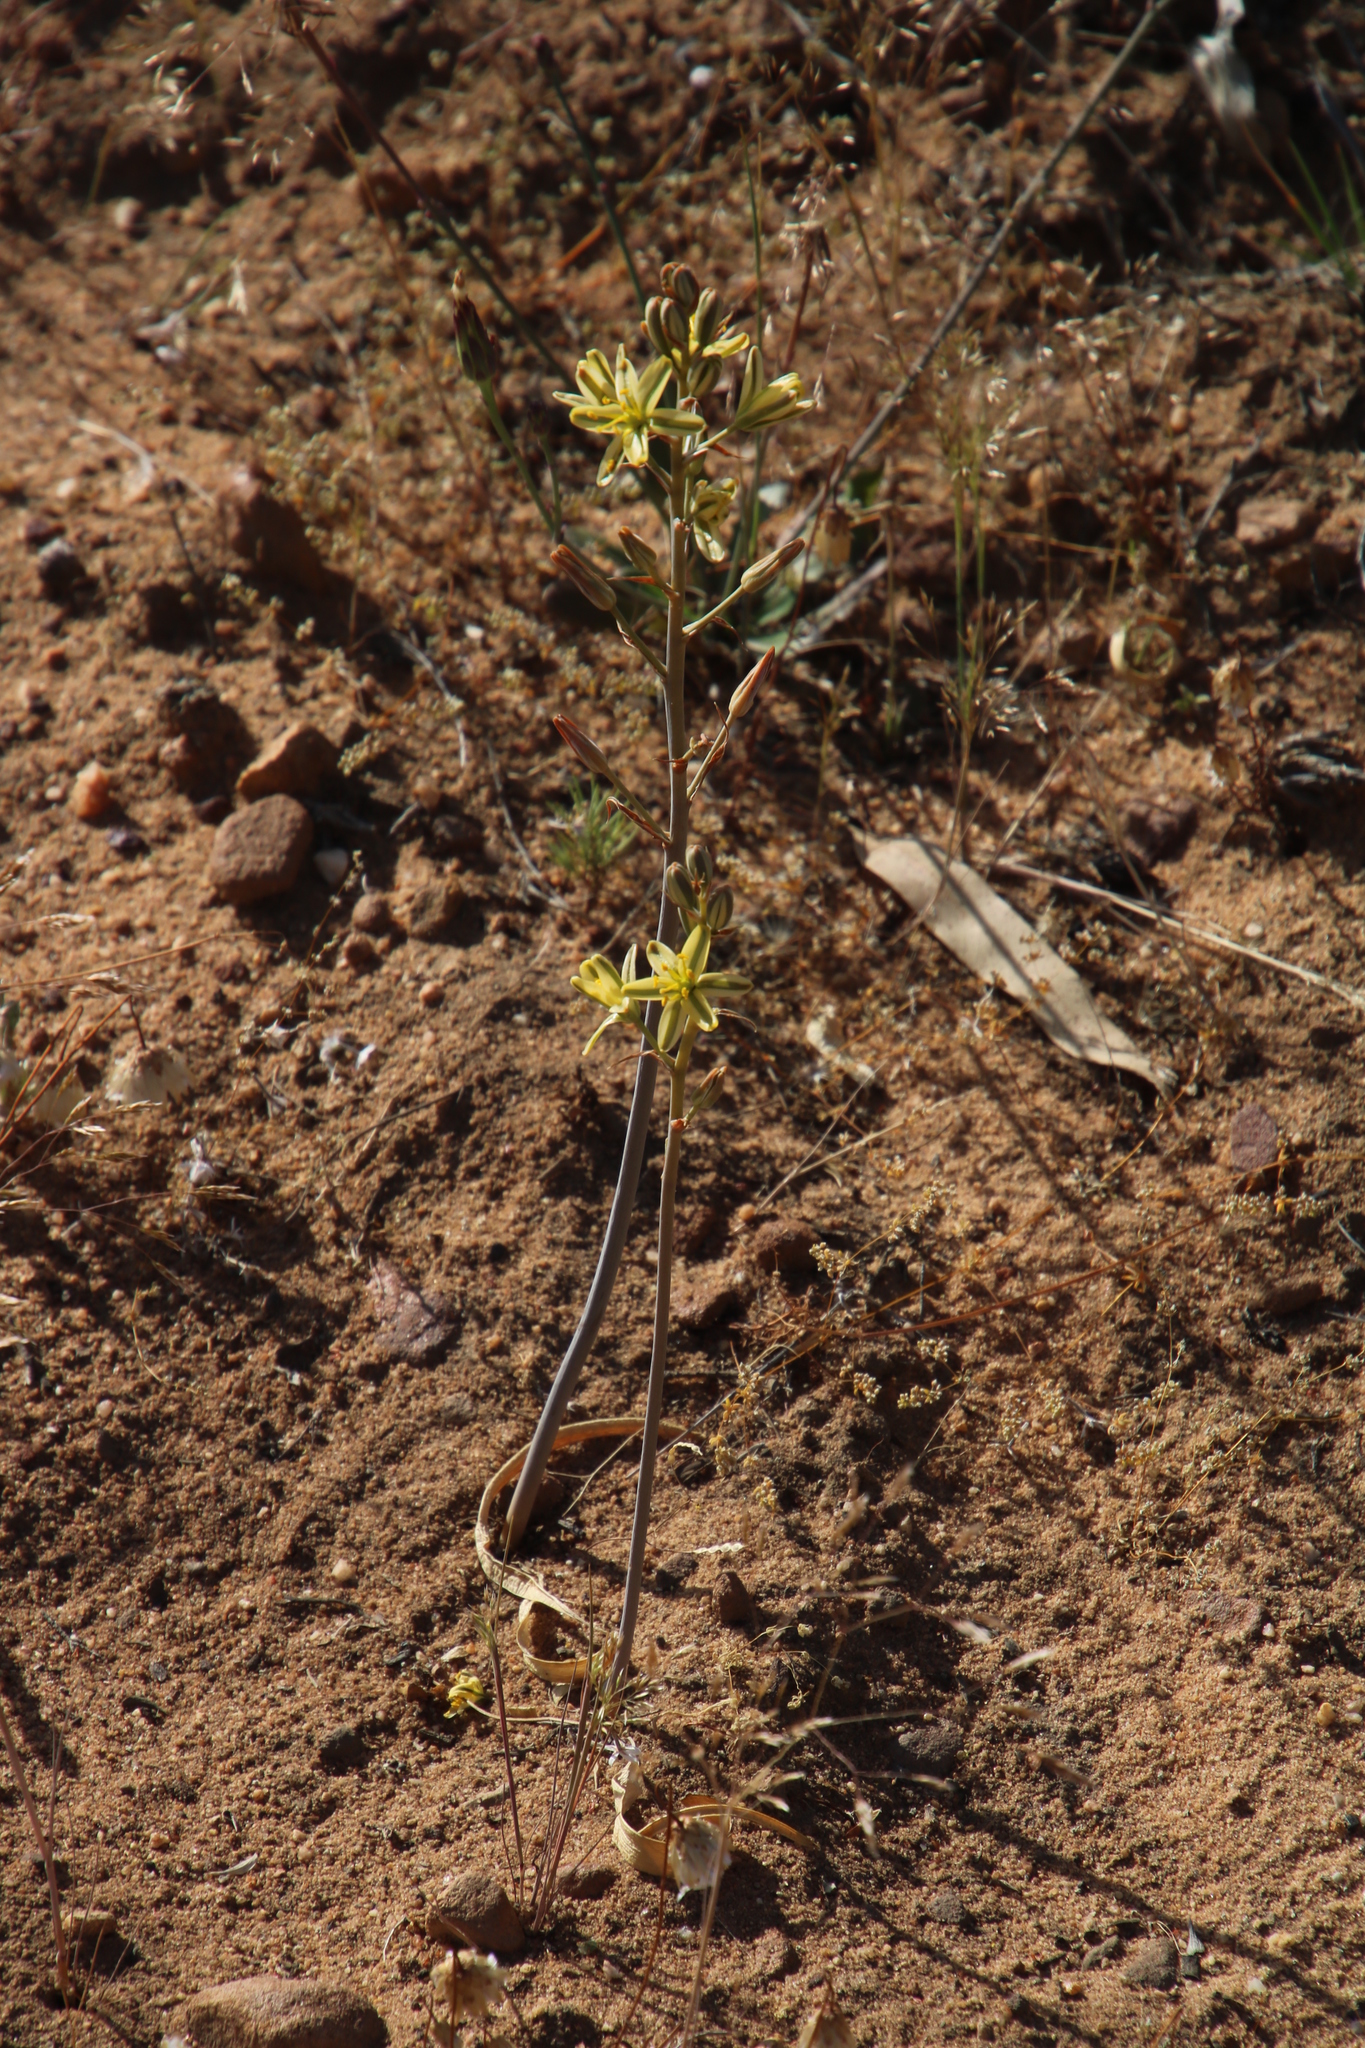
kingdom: Plantae
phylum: Tracheophyta
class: Liliopsida
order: Asparagales
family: Asparagaceae
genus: Albuca
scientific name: Albuca suaveolens
